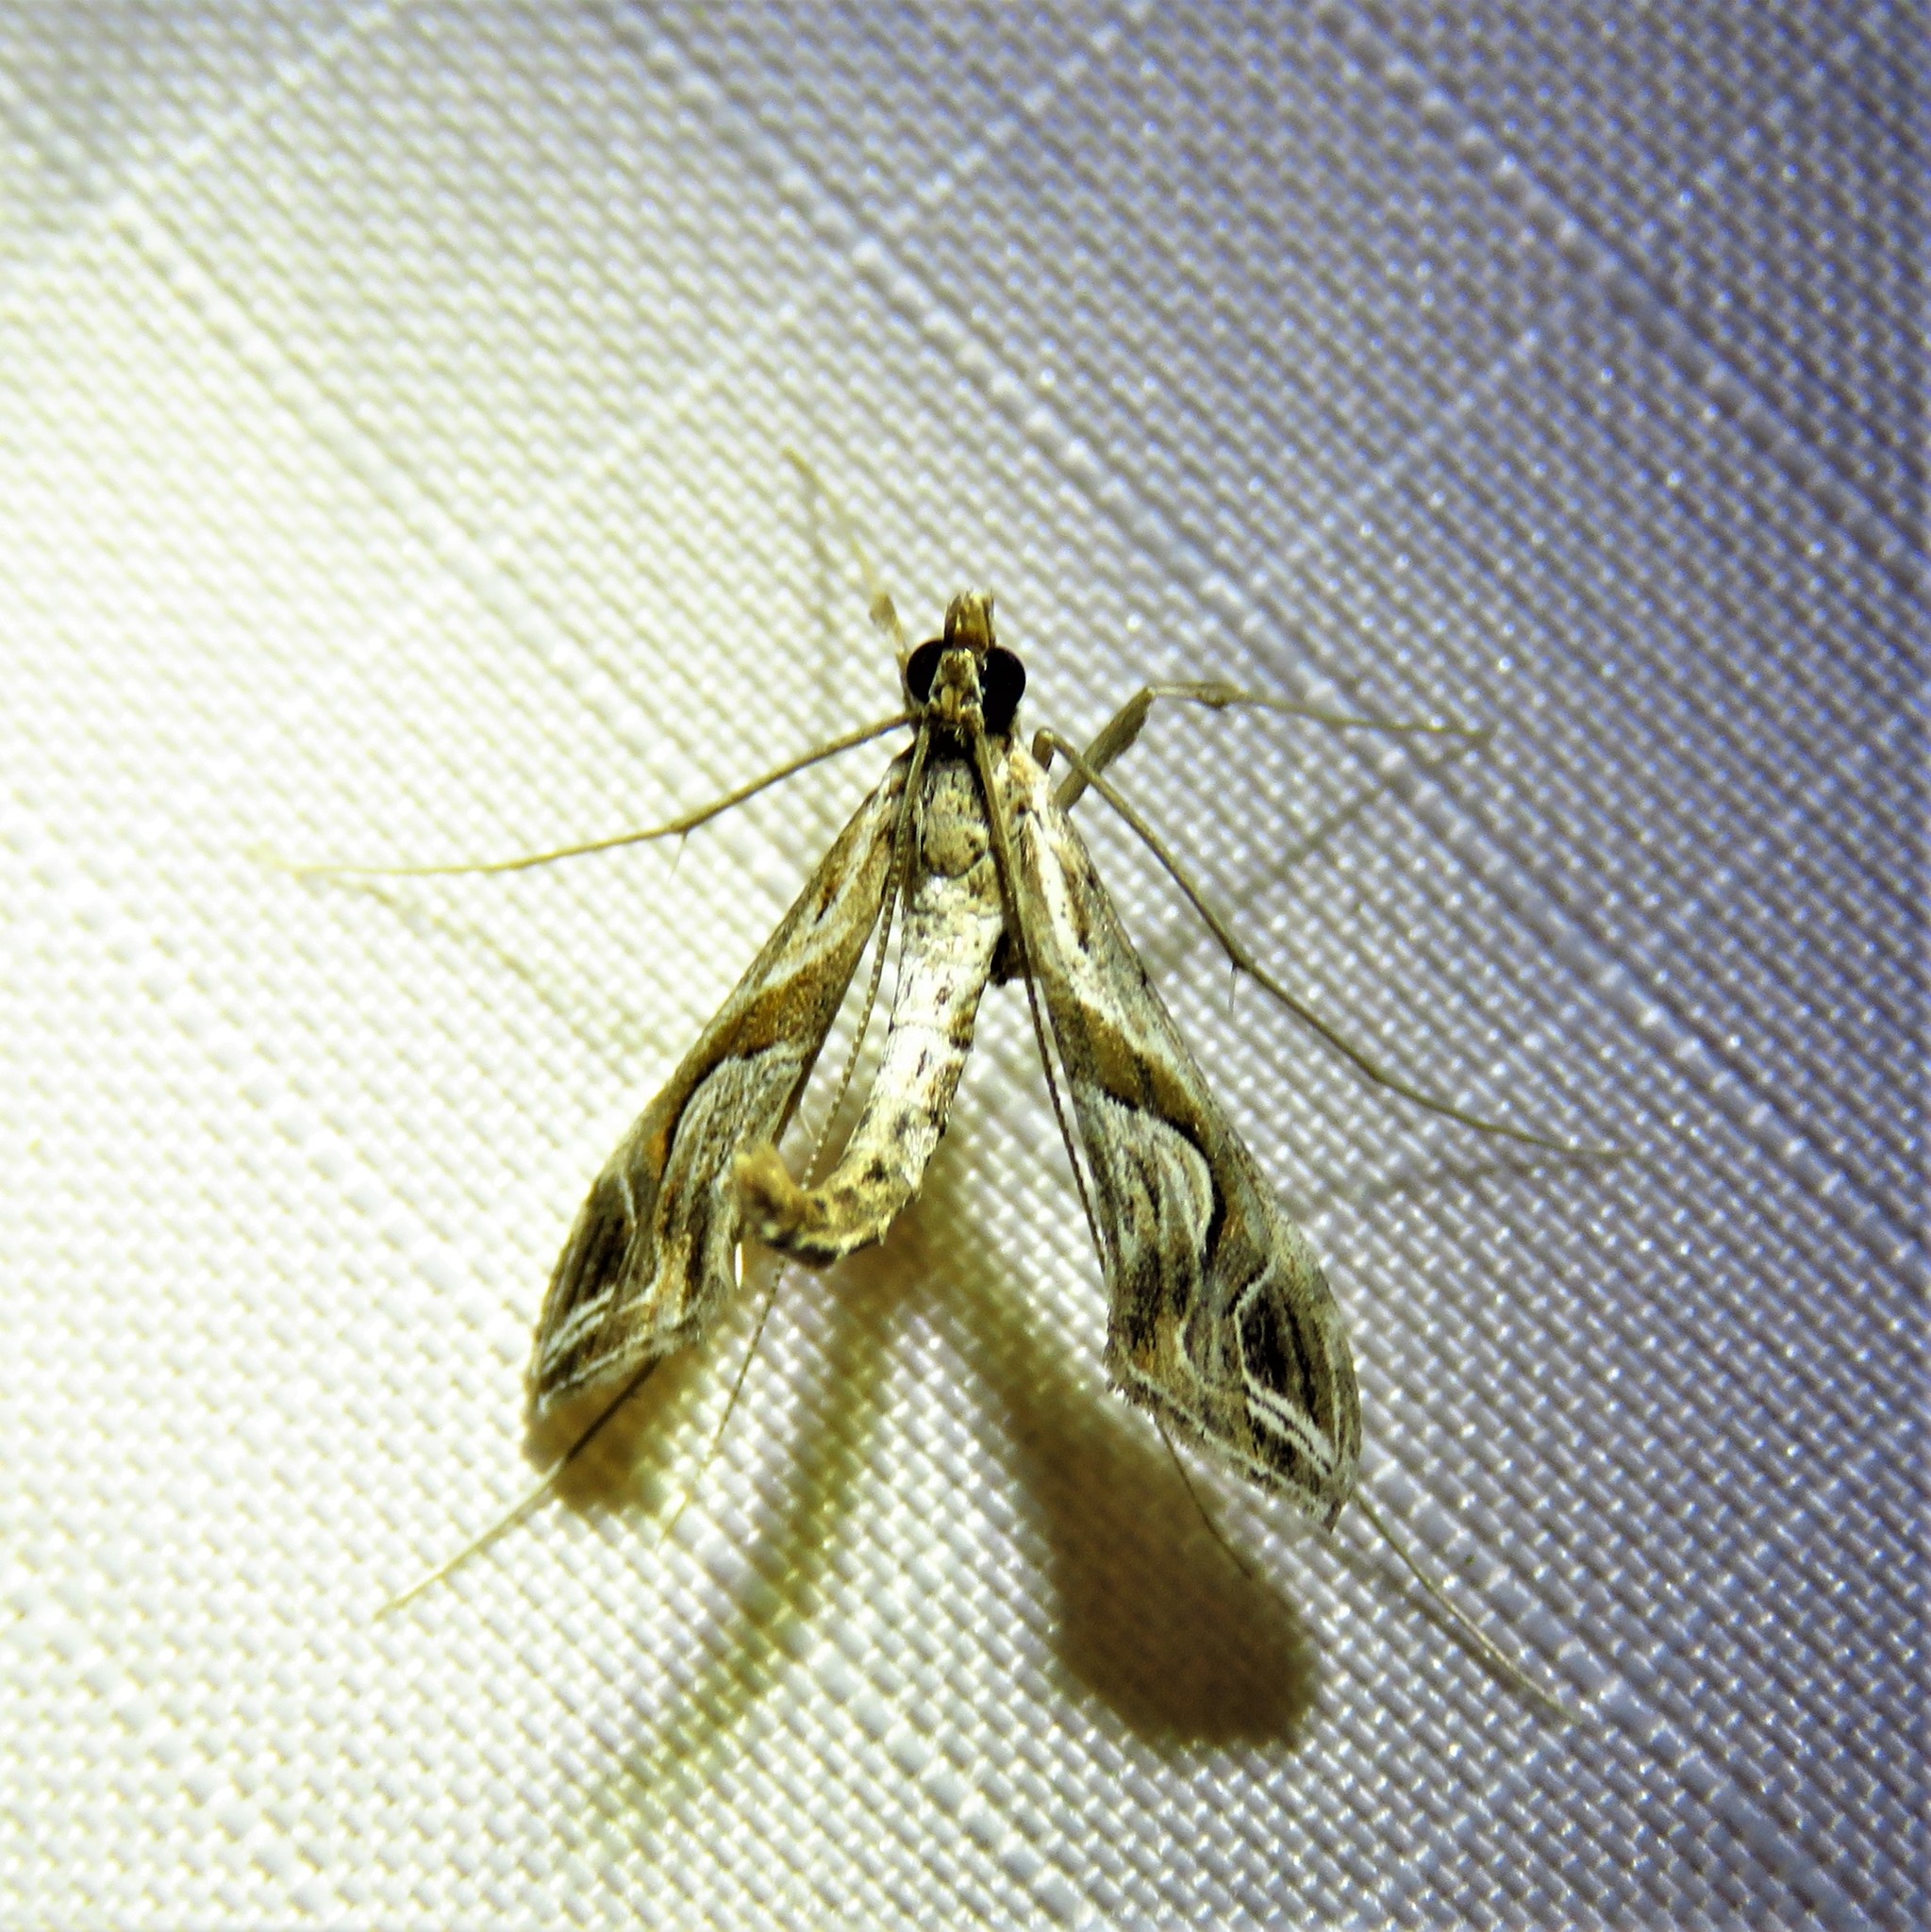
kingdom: Animalia
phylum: Arthropoda
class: Insecta
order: Lepidoptera
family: Crambidae
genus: Lineodes
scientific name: Lineodes integra
